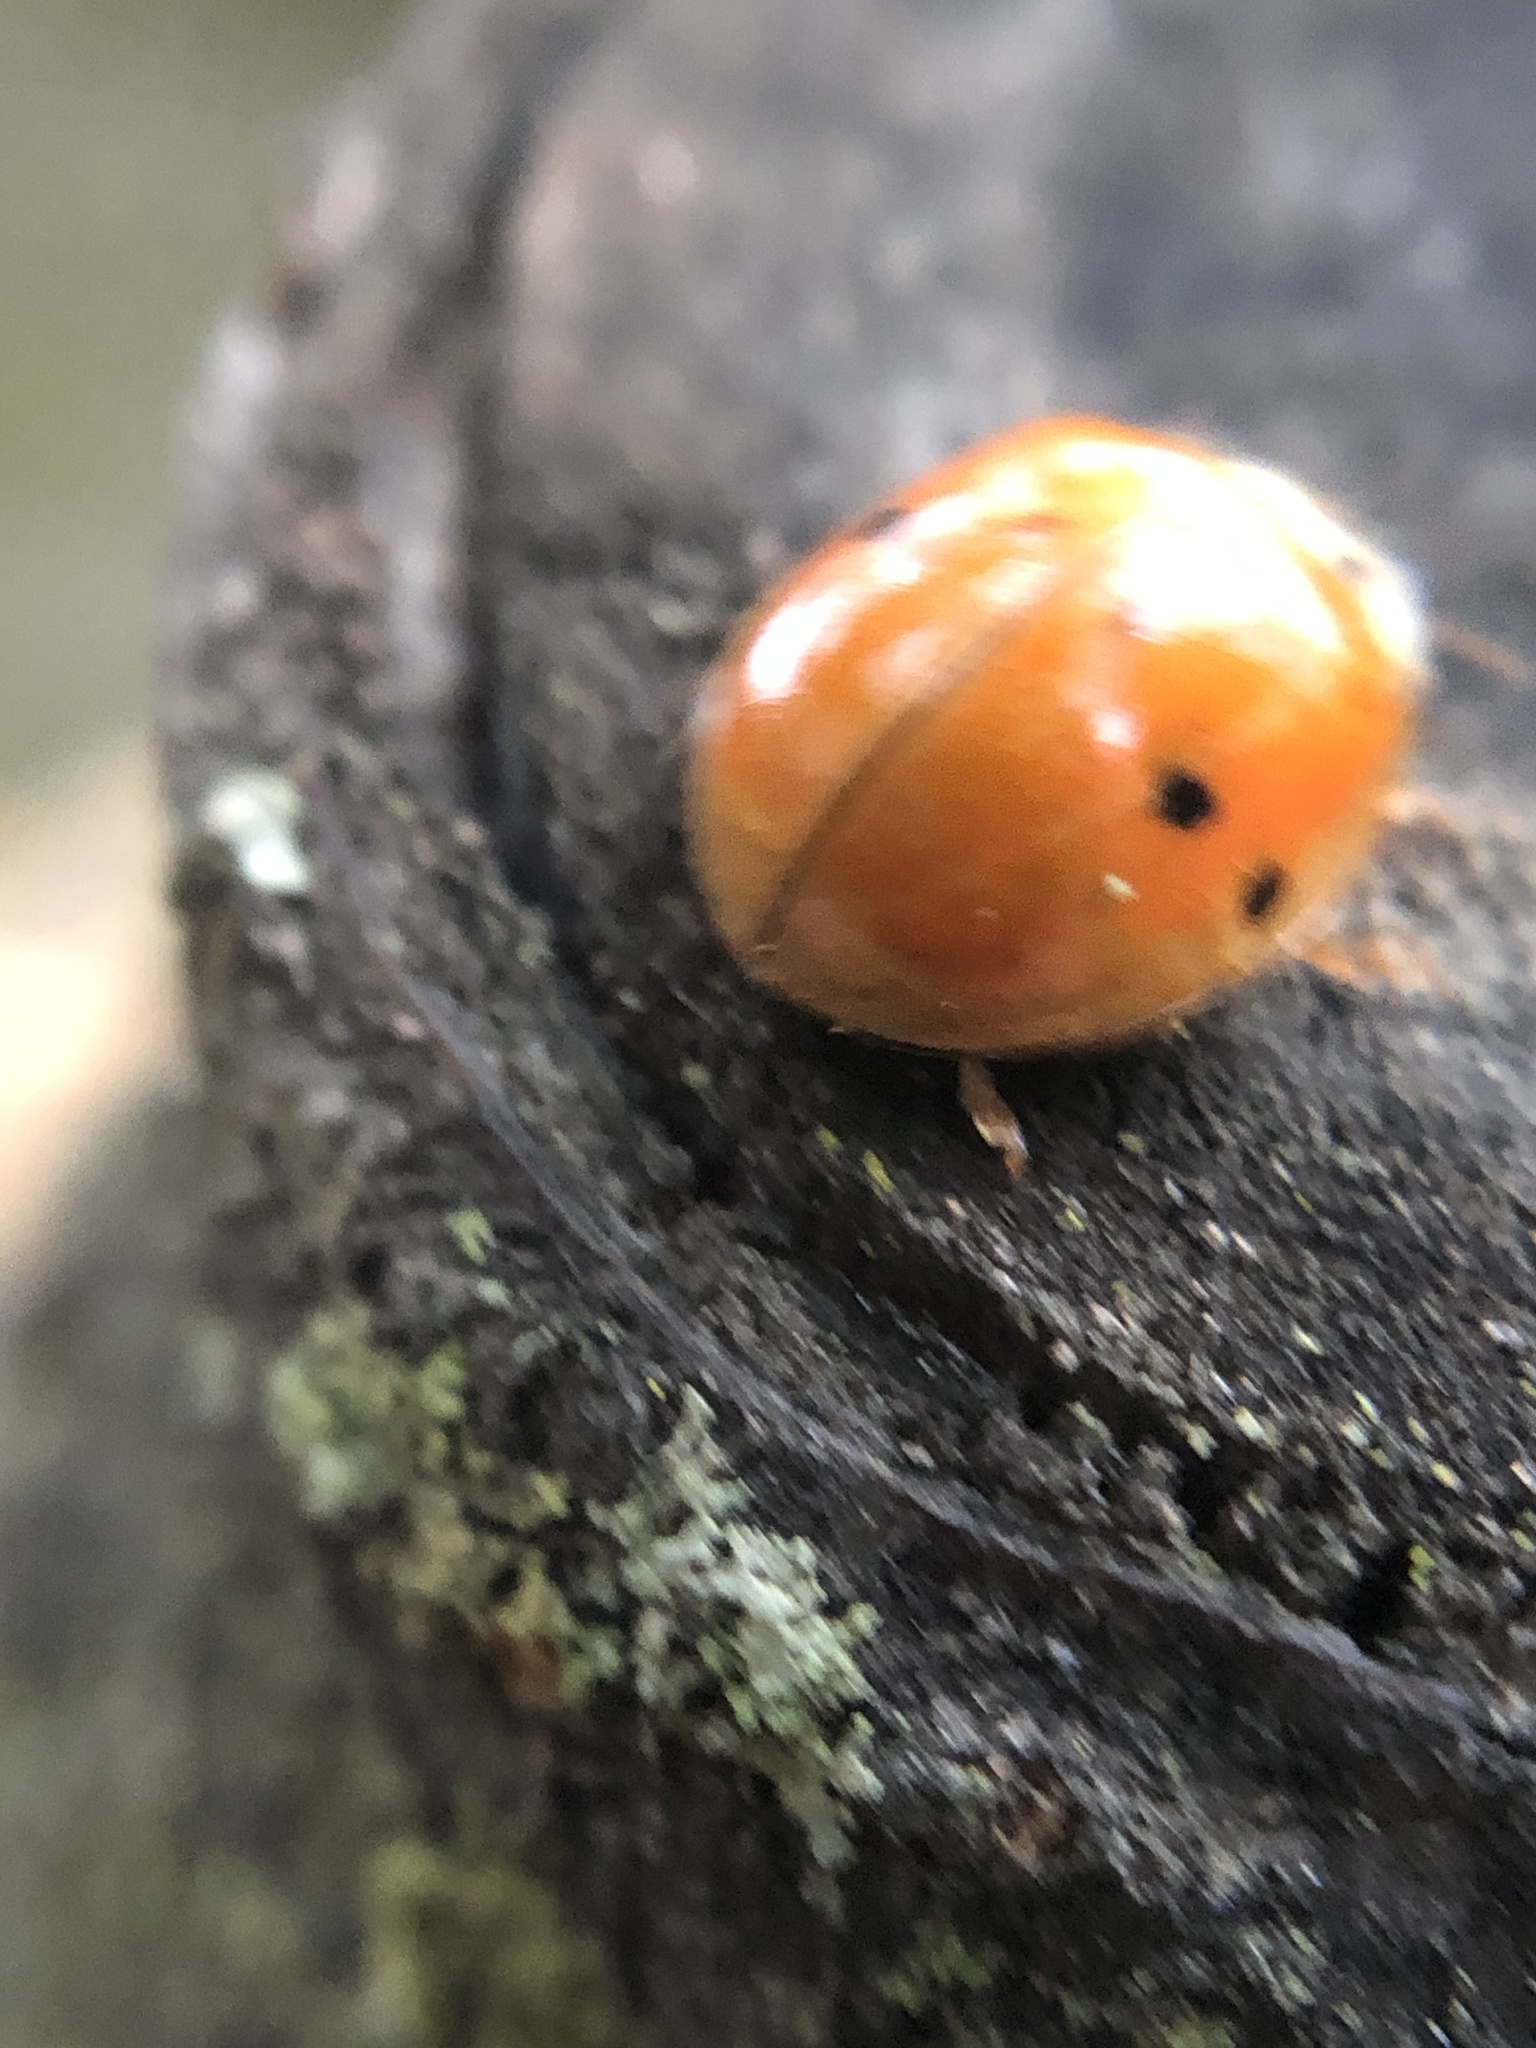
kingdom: Animalia
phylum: Arthropoda
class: Insecta
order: Coleoptera
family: Coccinellidae
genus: Harmonia
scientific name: Harmonia axyridis
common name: Harlequin ladybird
